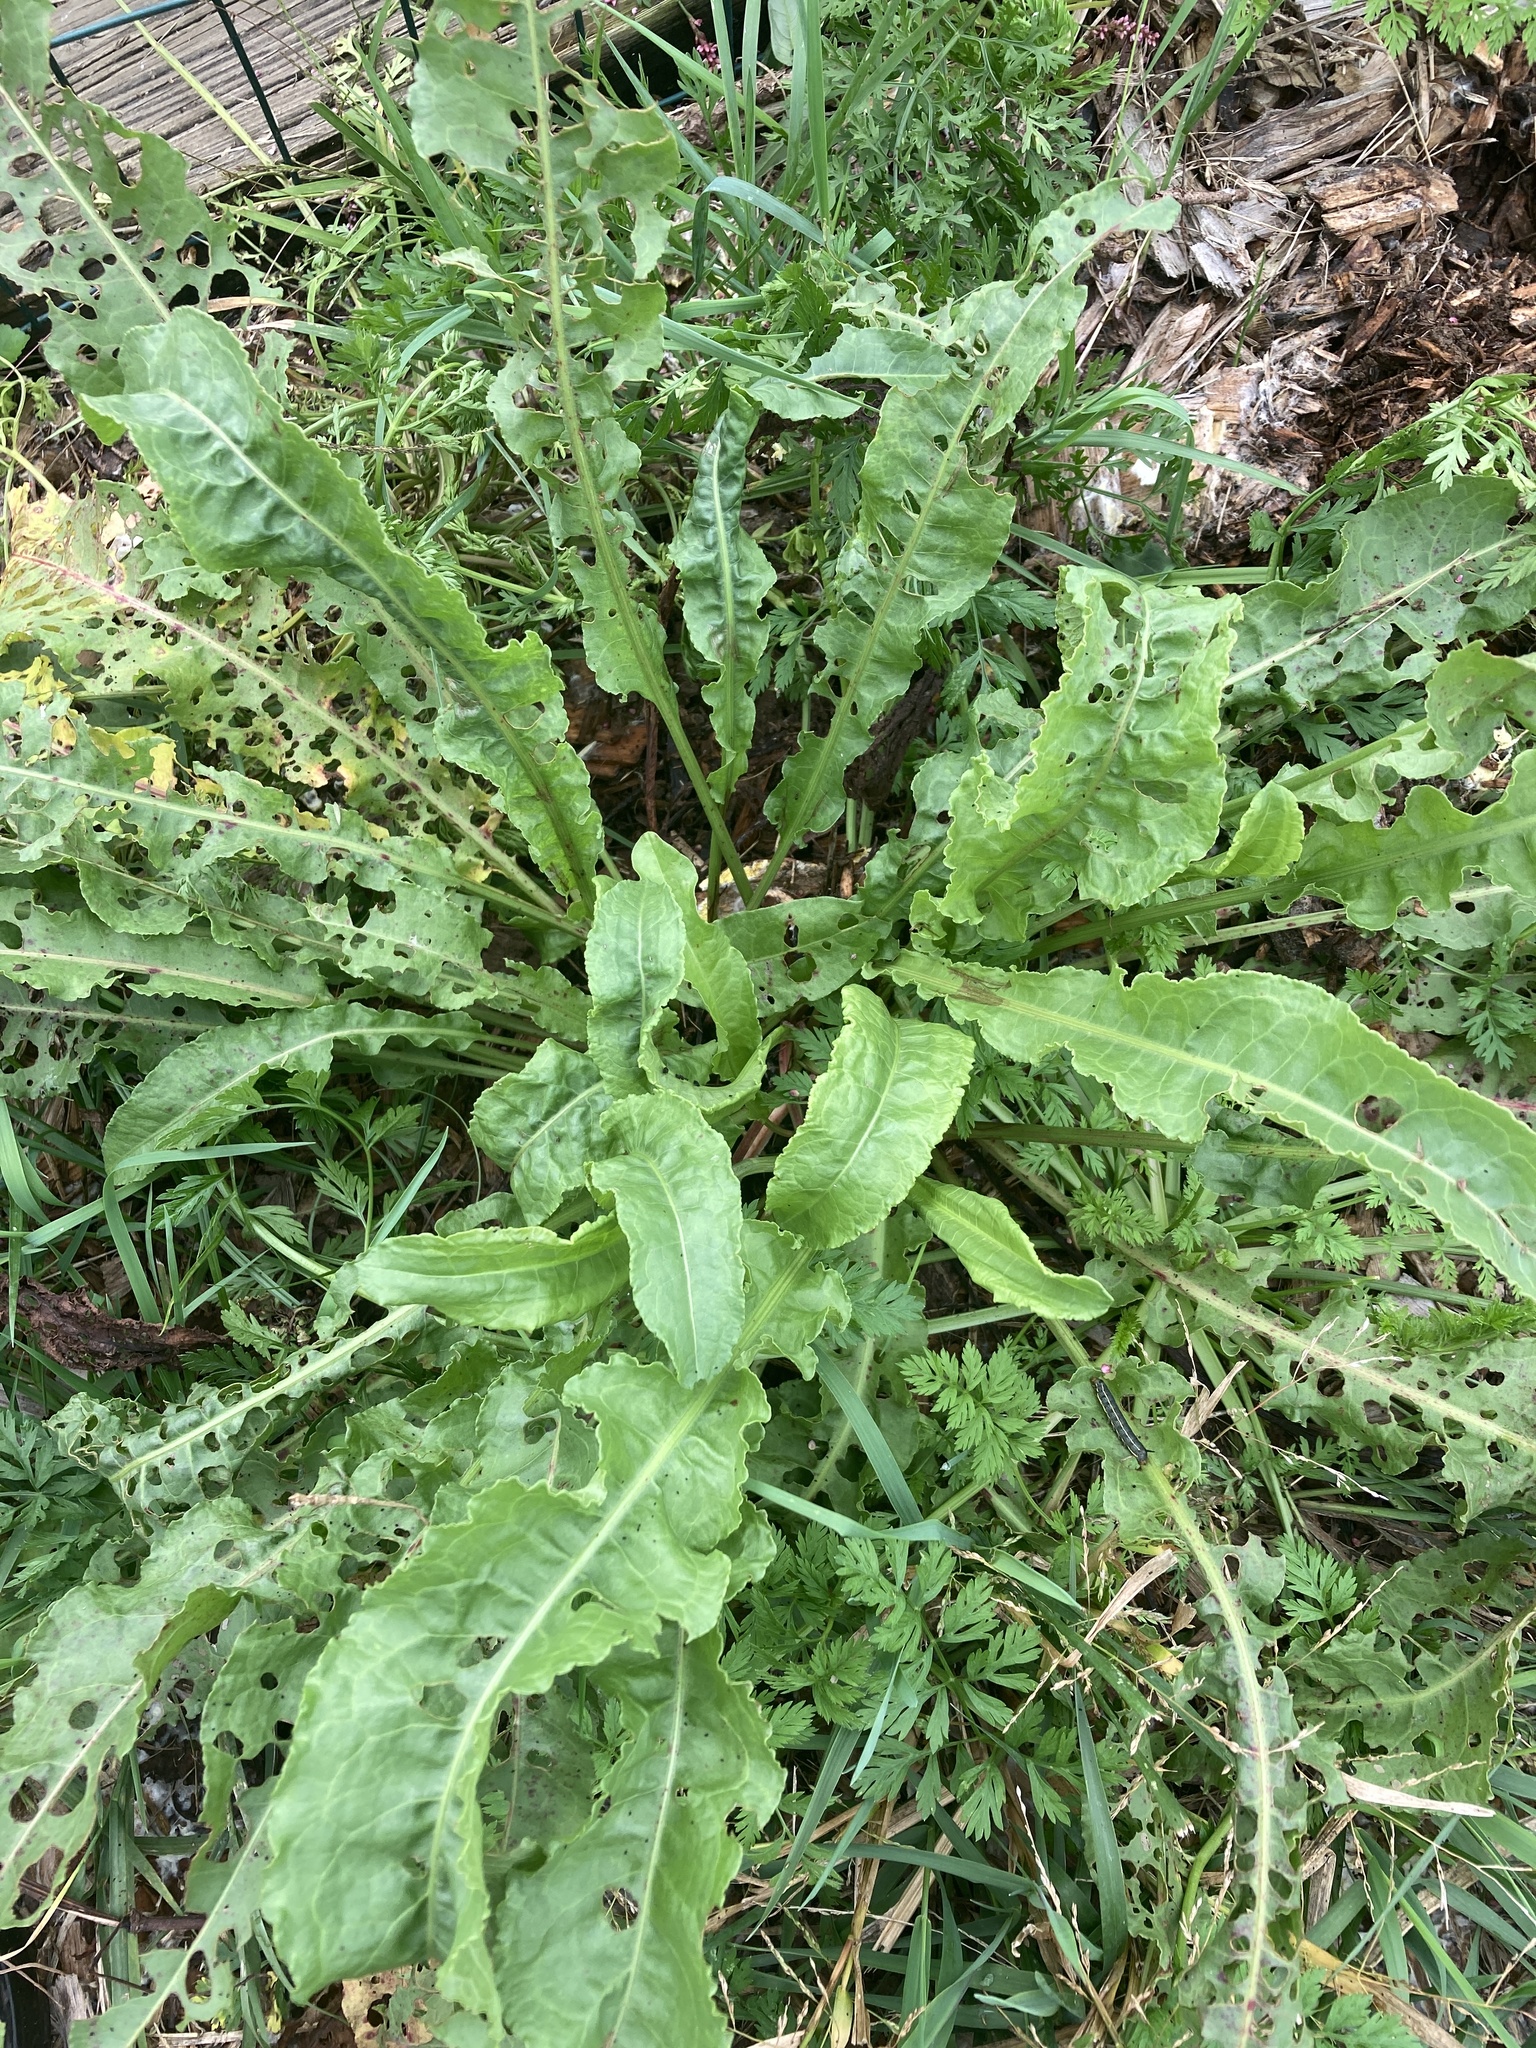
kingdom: Animalia
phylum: Arthropoda
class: Insecta
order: Lepidoptera
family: Sphingidae
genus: Hyles
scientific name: Hyles lineata
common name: White-lined sphinx
